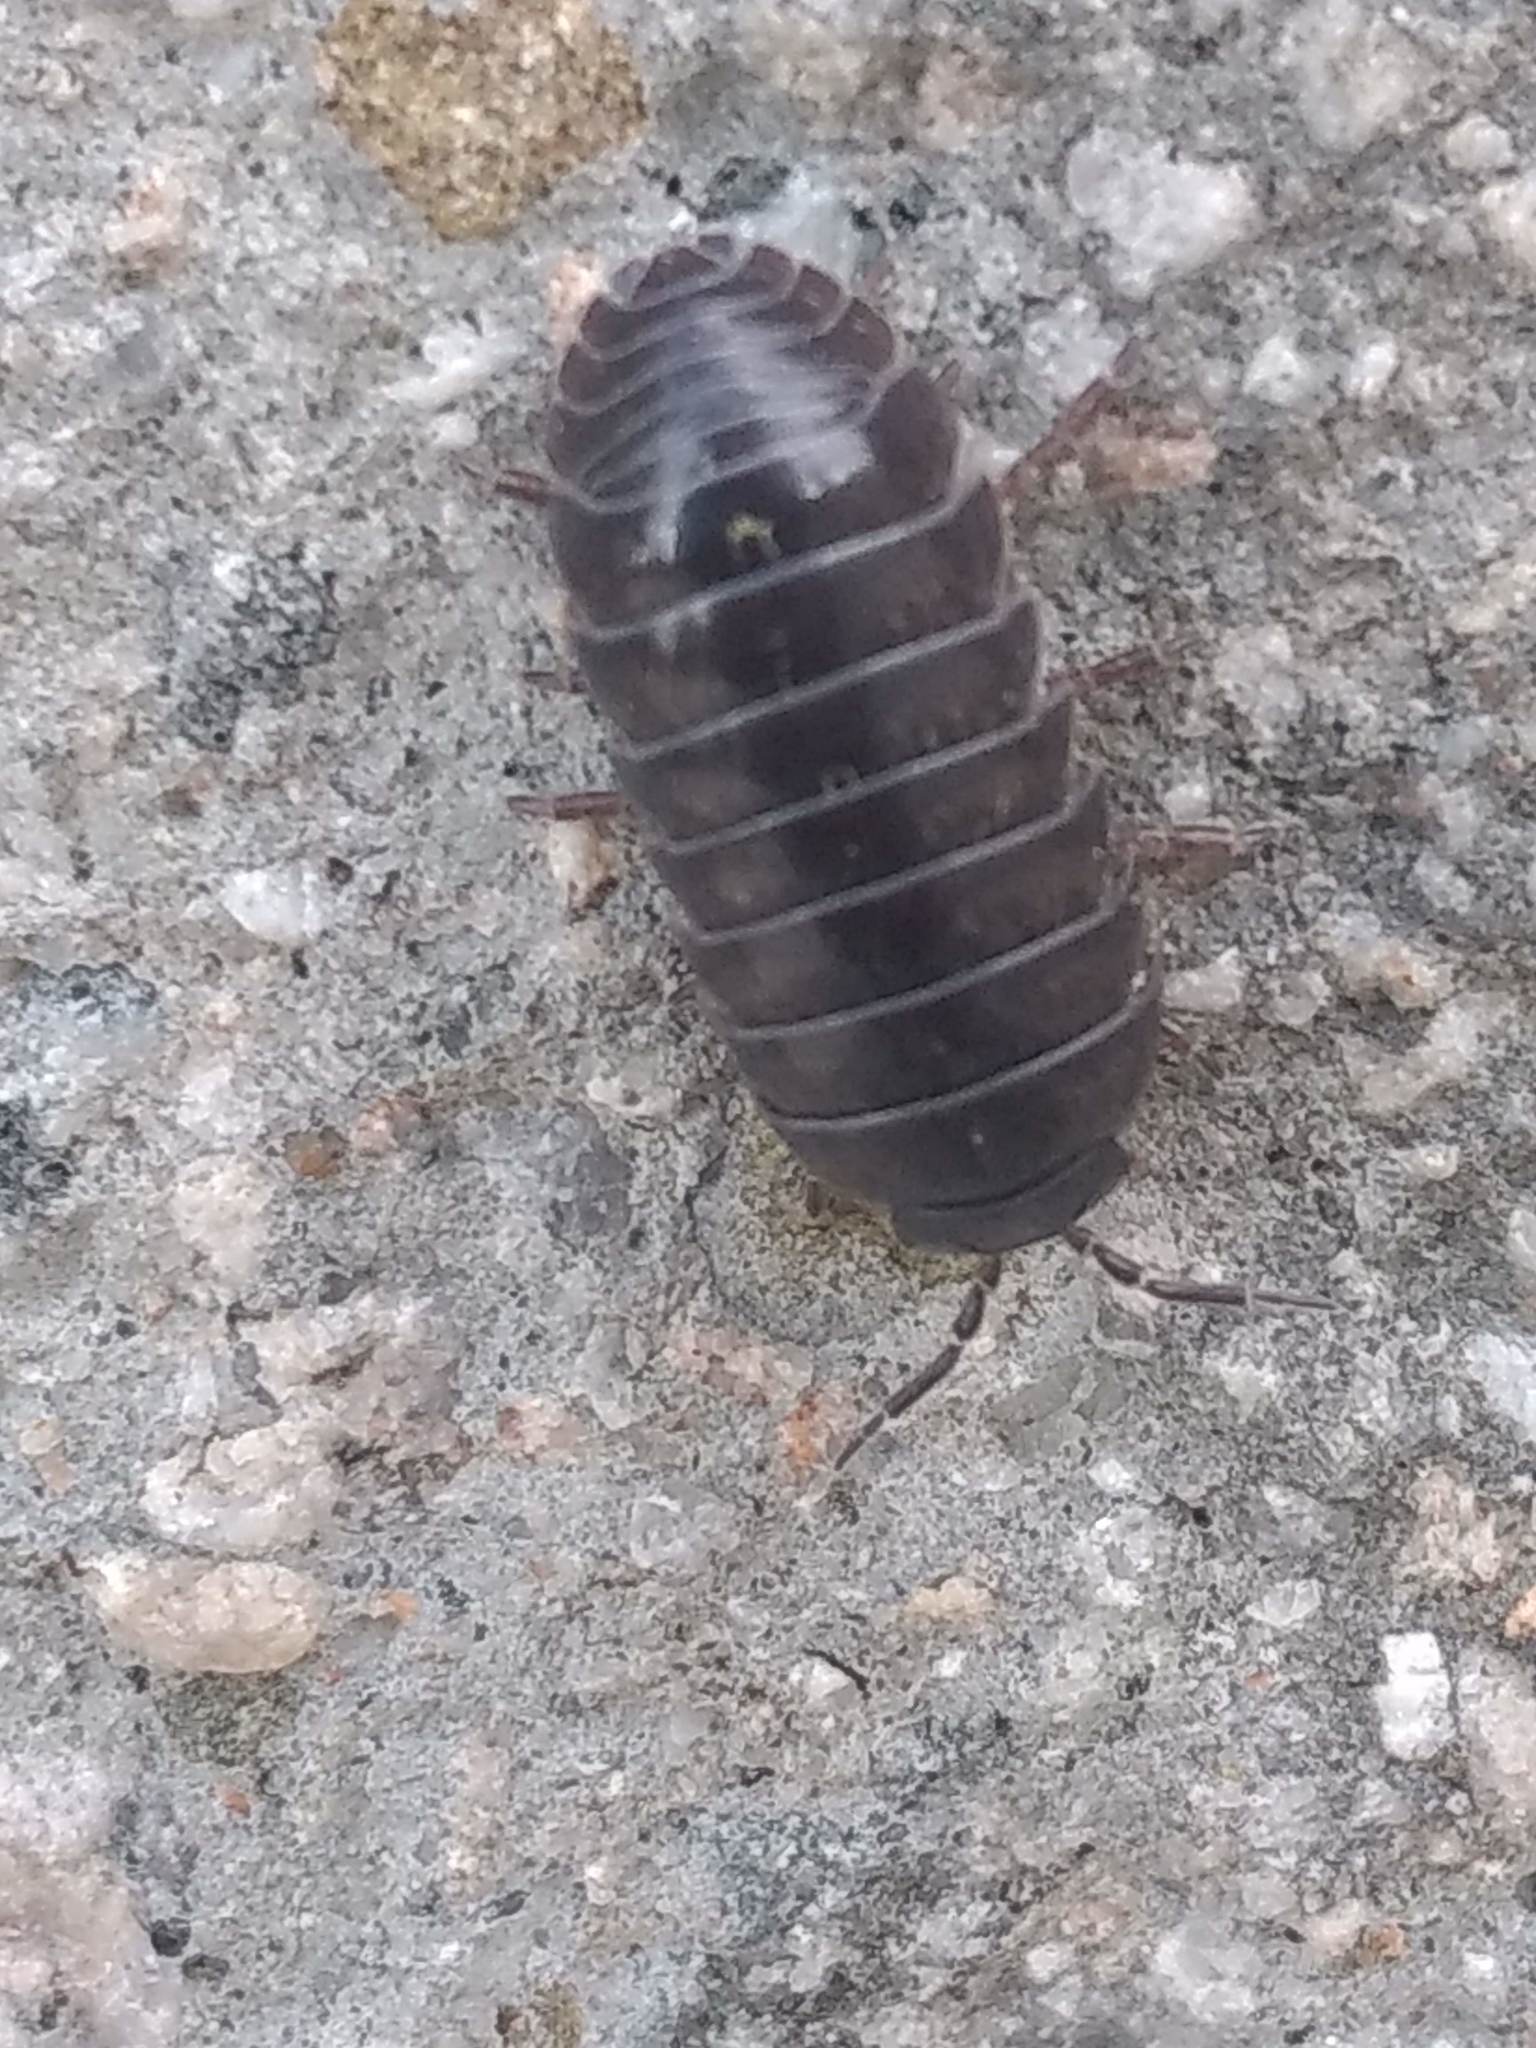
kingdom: Animalia
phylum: Arthropoda
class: Malacostraca
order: Isopoda
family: Armadillidiidae
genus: Armadillidium
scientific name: Armadillidium vulgare
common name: Common pill woodlouse
